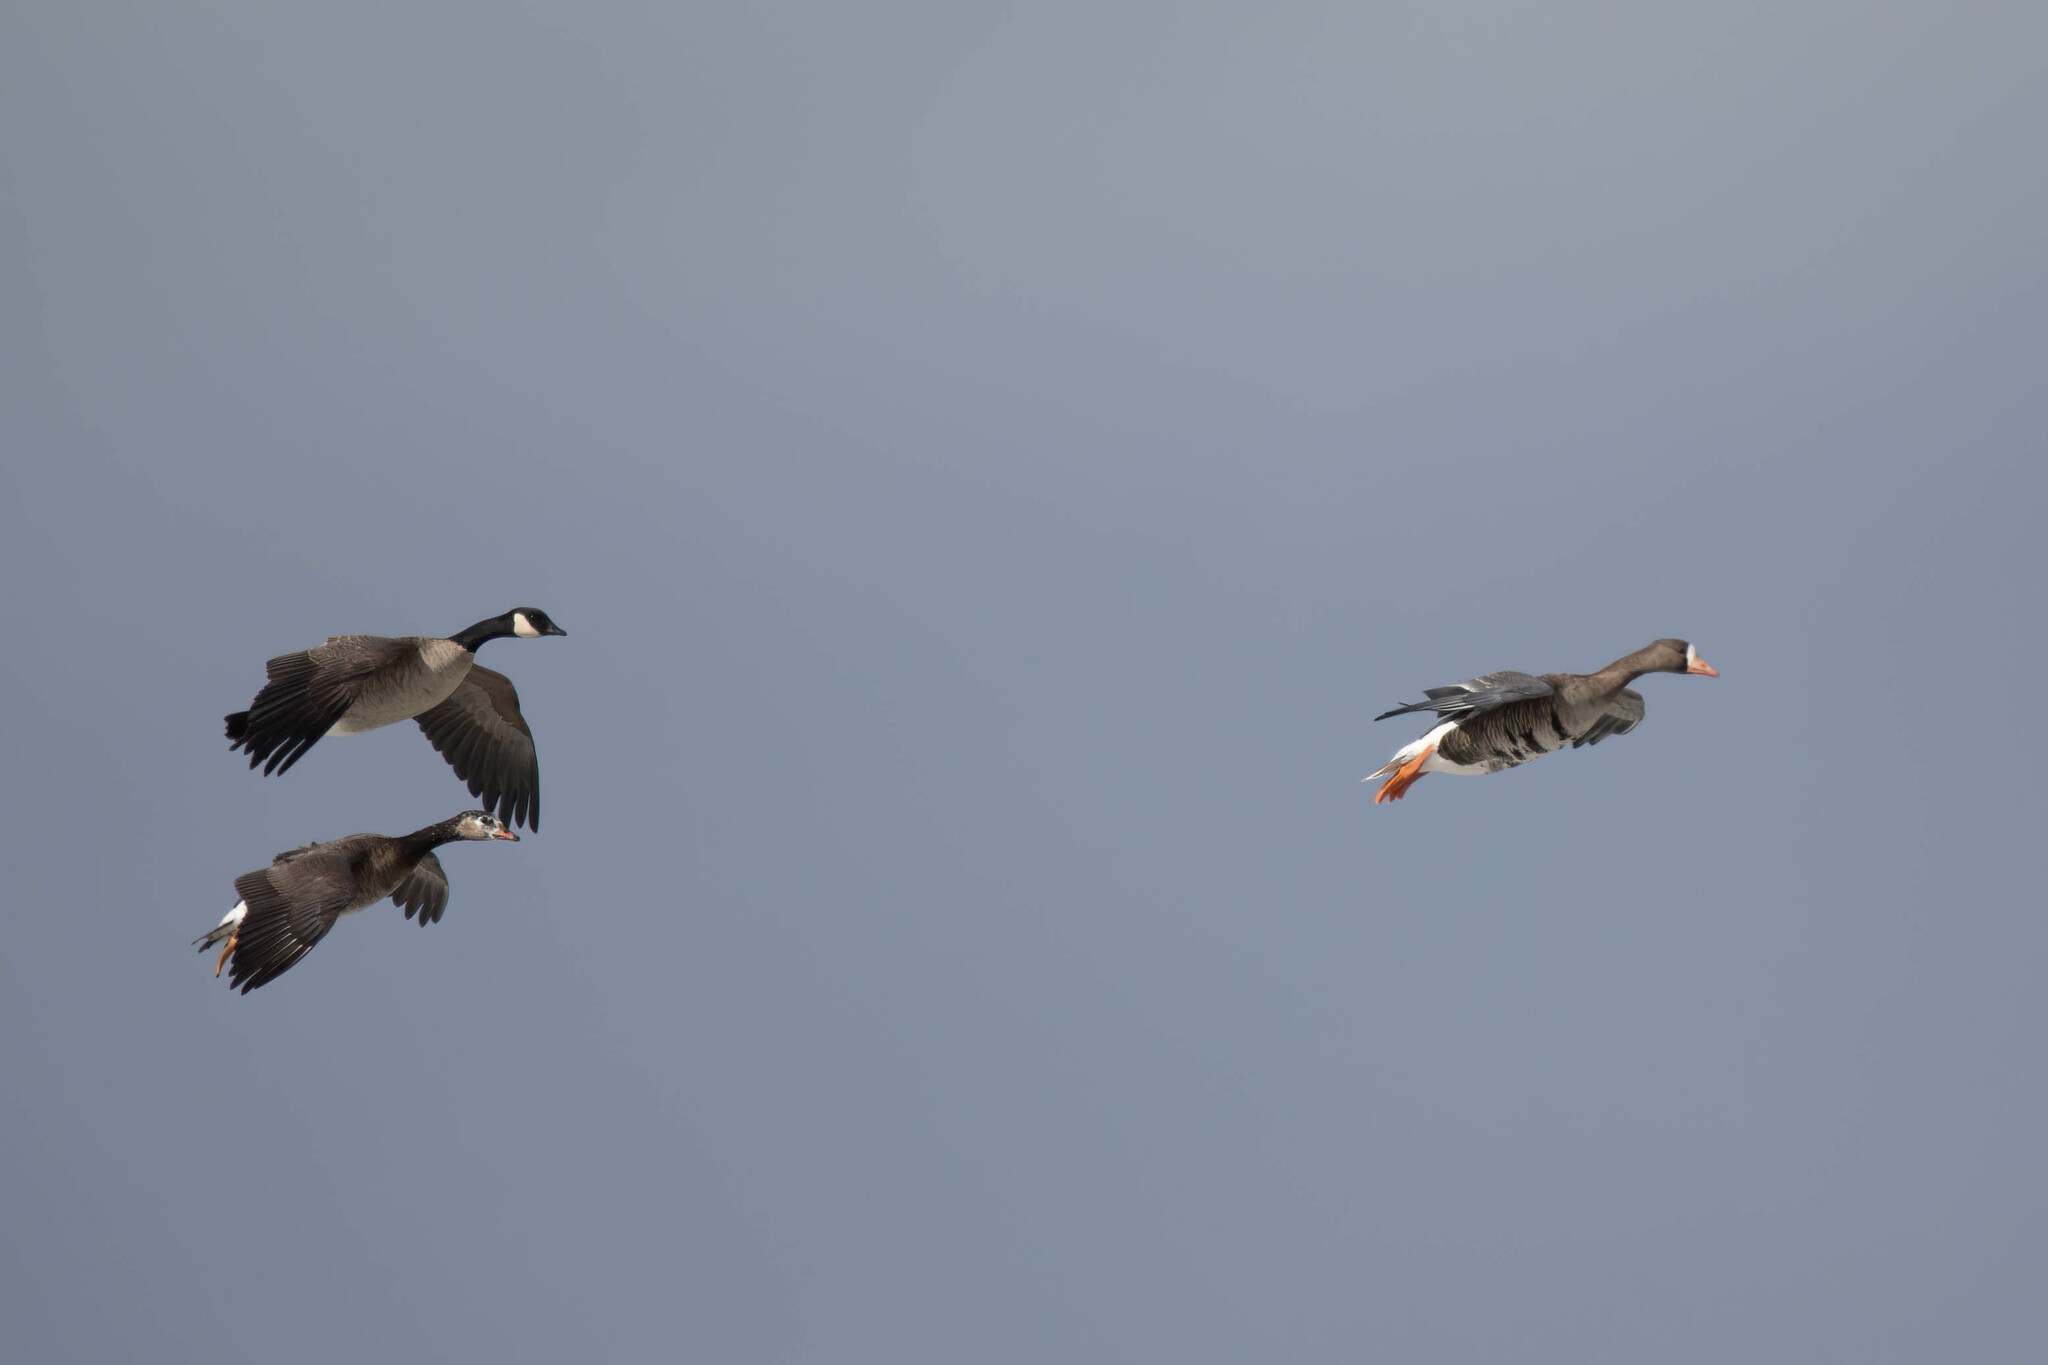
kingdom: Animalia
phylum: Chordata
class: Aves
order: Anseriformes
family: Anatidae
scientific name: Anatidae
